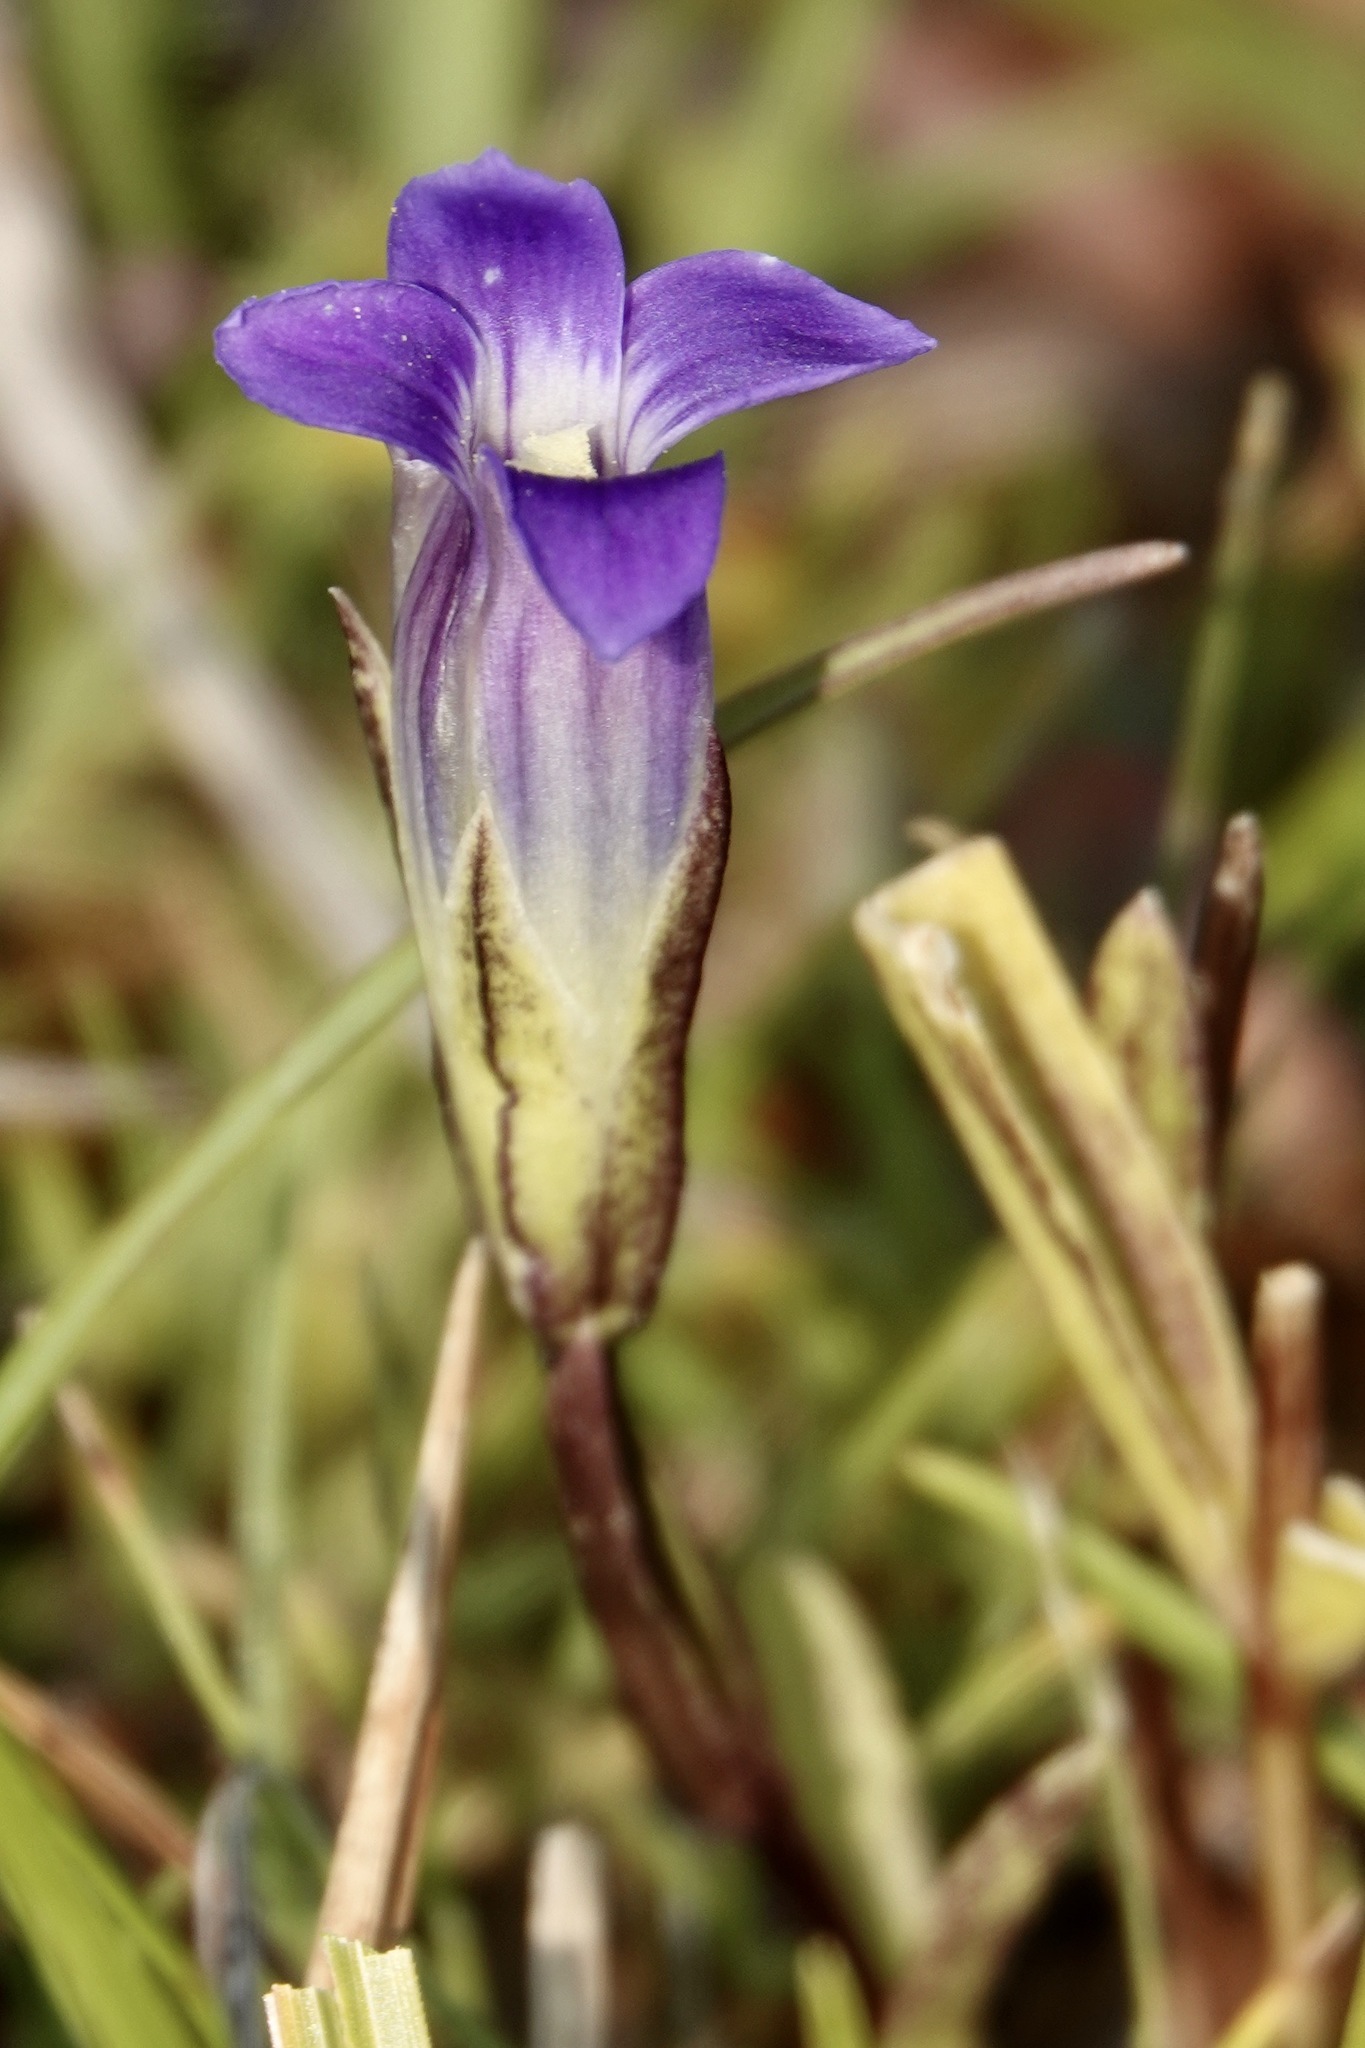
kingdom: Plantae
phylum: Tracheophyta
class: Magnoliopsida
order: Gentianales
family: Gentianaceae
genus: Gentianopsis
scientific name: Gentianopsis holopetala
